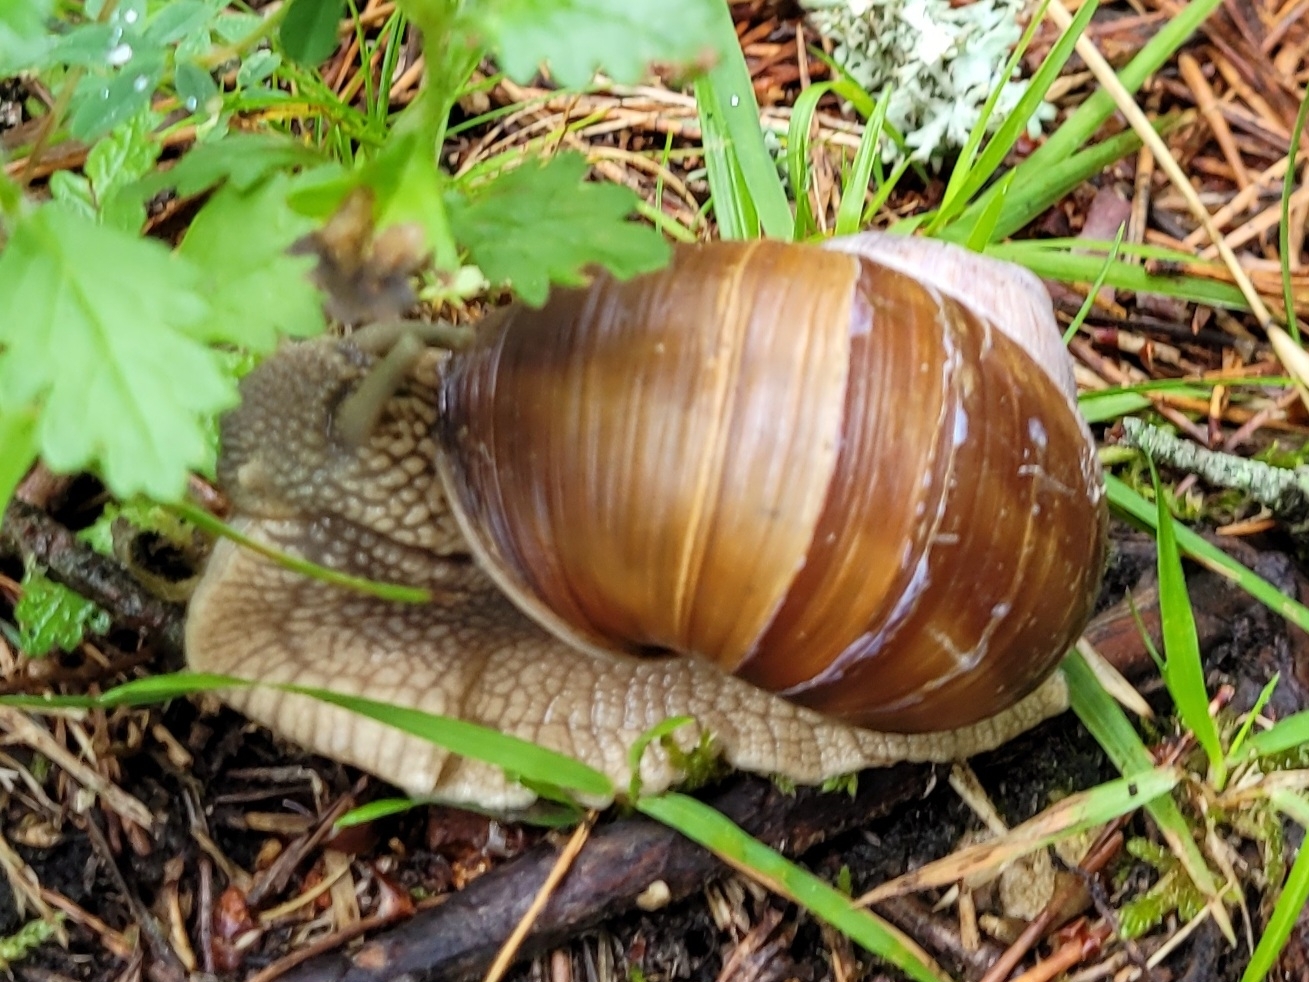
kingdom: Animalia
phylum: Mollusca
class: Gastropoda
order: Stylommatophora
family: Helicidae
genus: Helix
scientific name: Helix pomatia
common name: Roman snail
